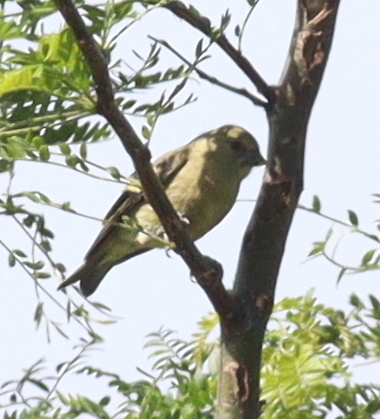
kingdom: Animalia
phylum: Chordata
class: Aves
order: Passeriformes
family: Fringillidae
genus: Spinus
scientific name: Spinus magellanicus
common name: Hooded siskin
